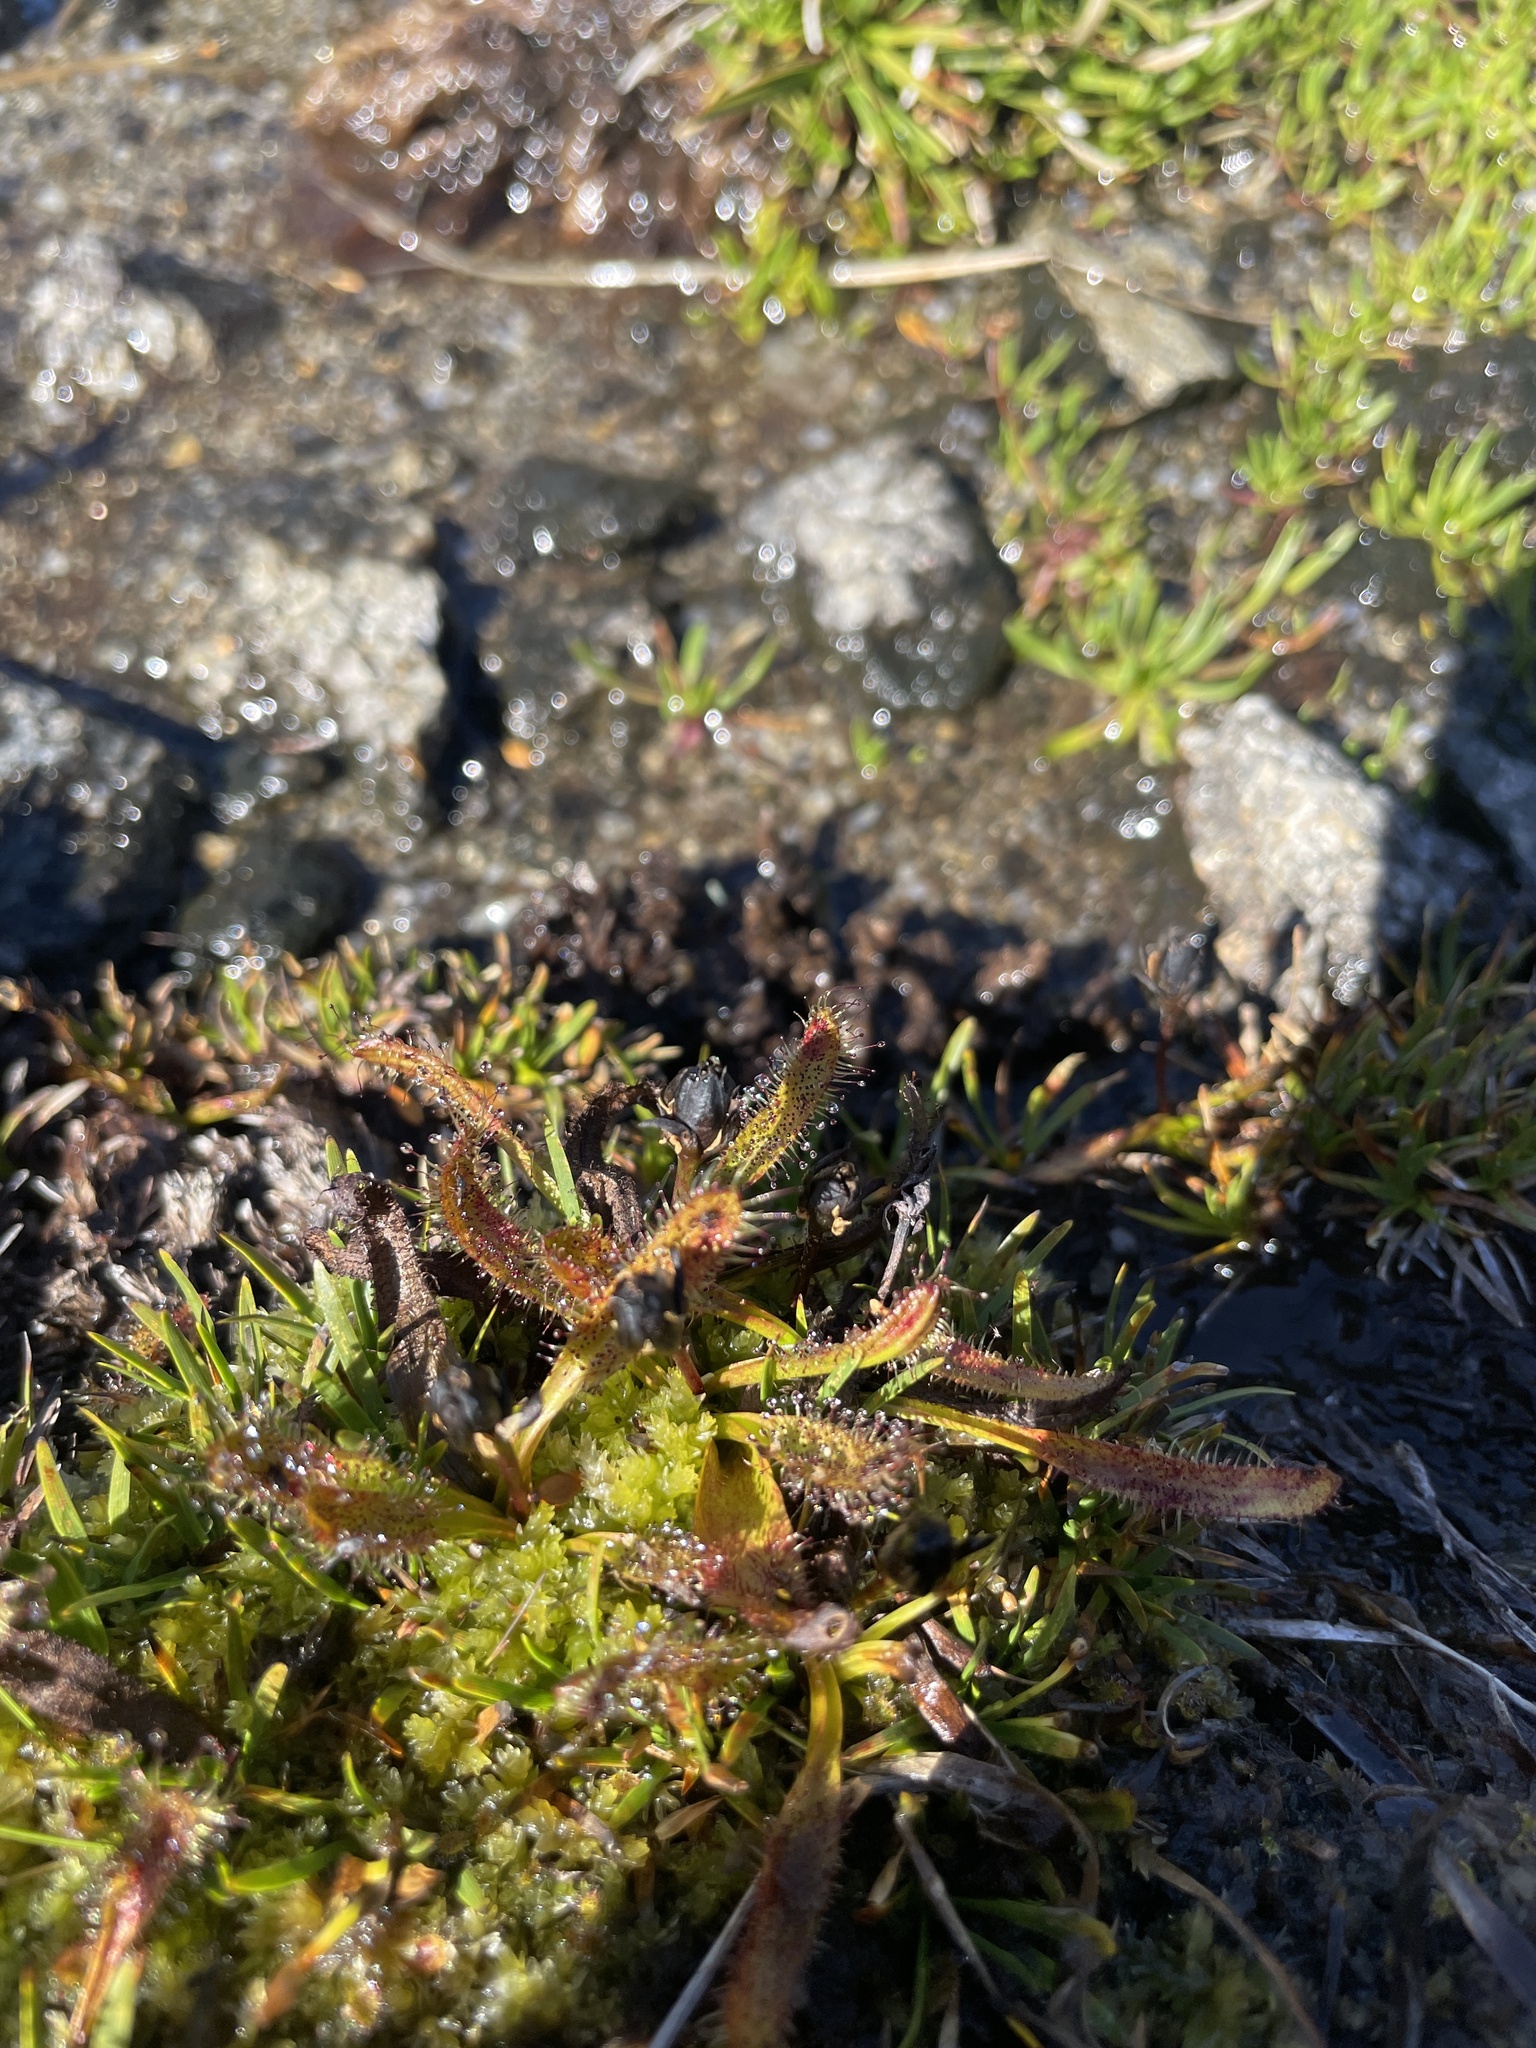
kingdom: Plantae
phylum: Tracheophyta
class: Magnoliopsida
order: Caryophyllales
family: Droseraceae
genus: Drosera
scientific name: Drosera arcturi
